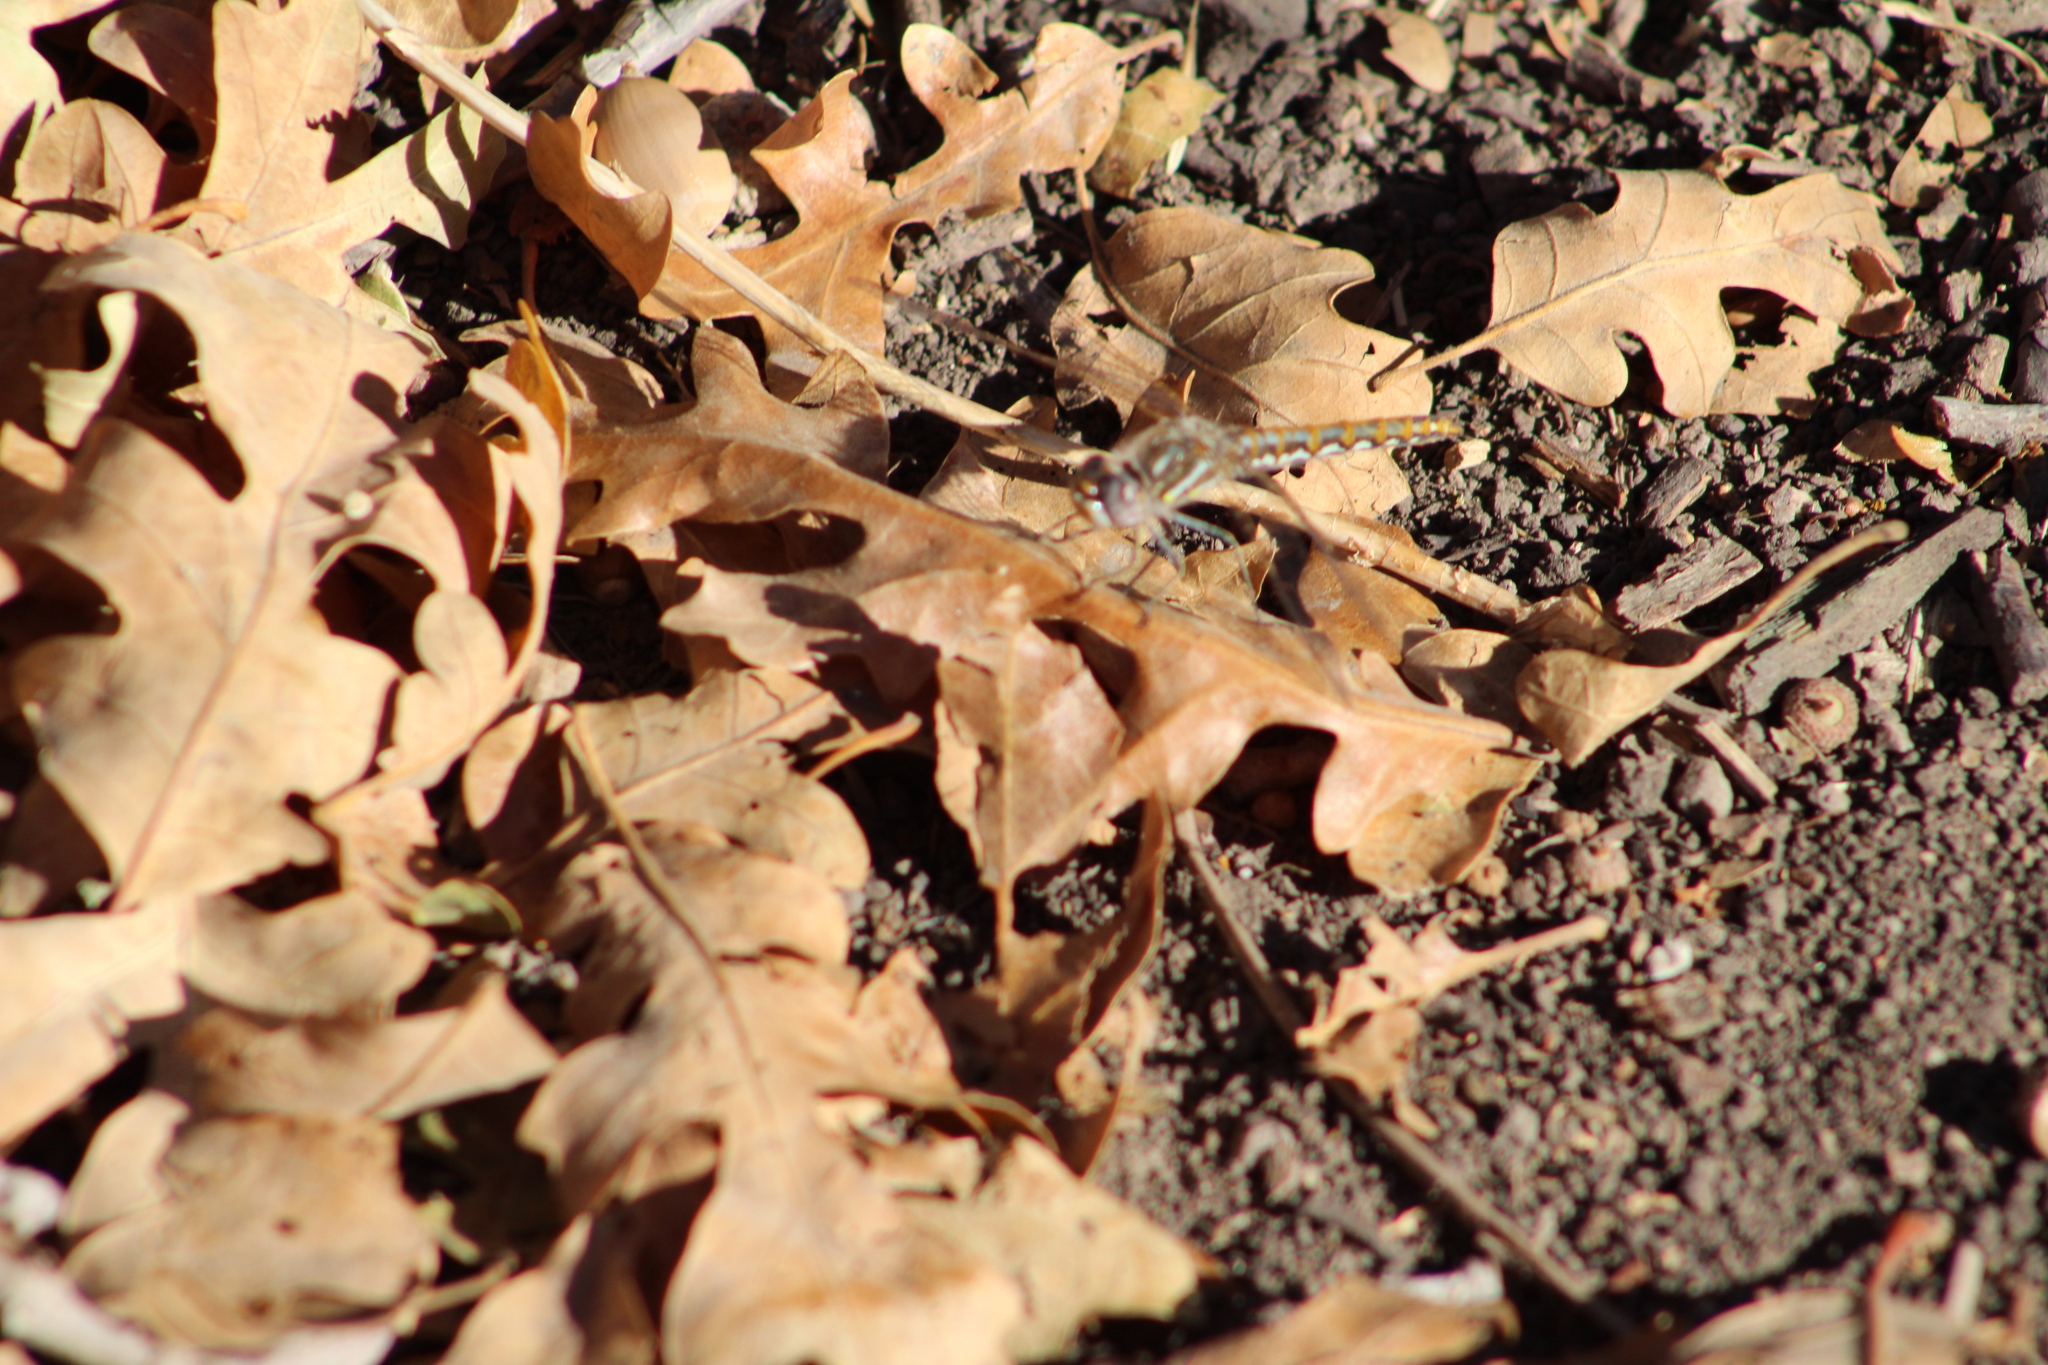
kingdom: Animalia
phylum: Arthropoda
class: Insecta
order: Odonata
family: Libellulidae
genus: Sympetrum
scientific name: Sympetrum corruptum
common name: Variegated meadowhawk
